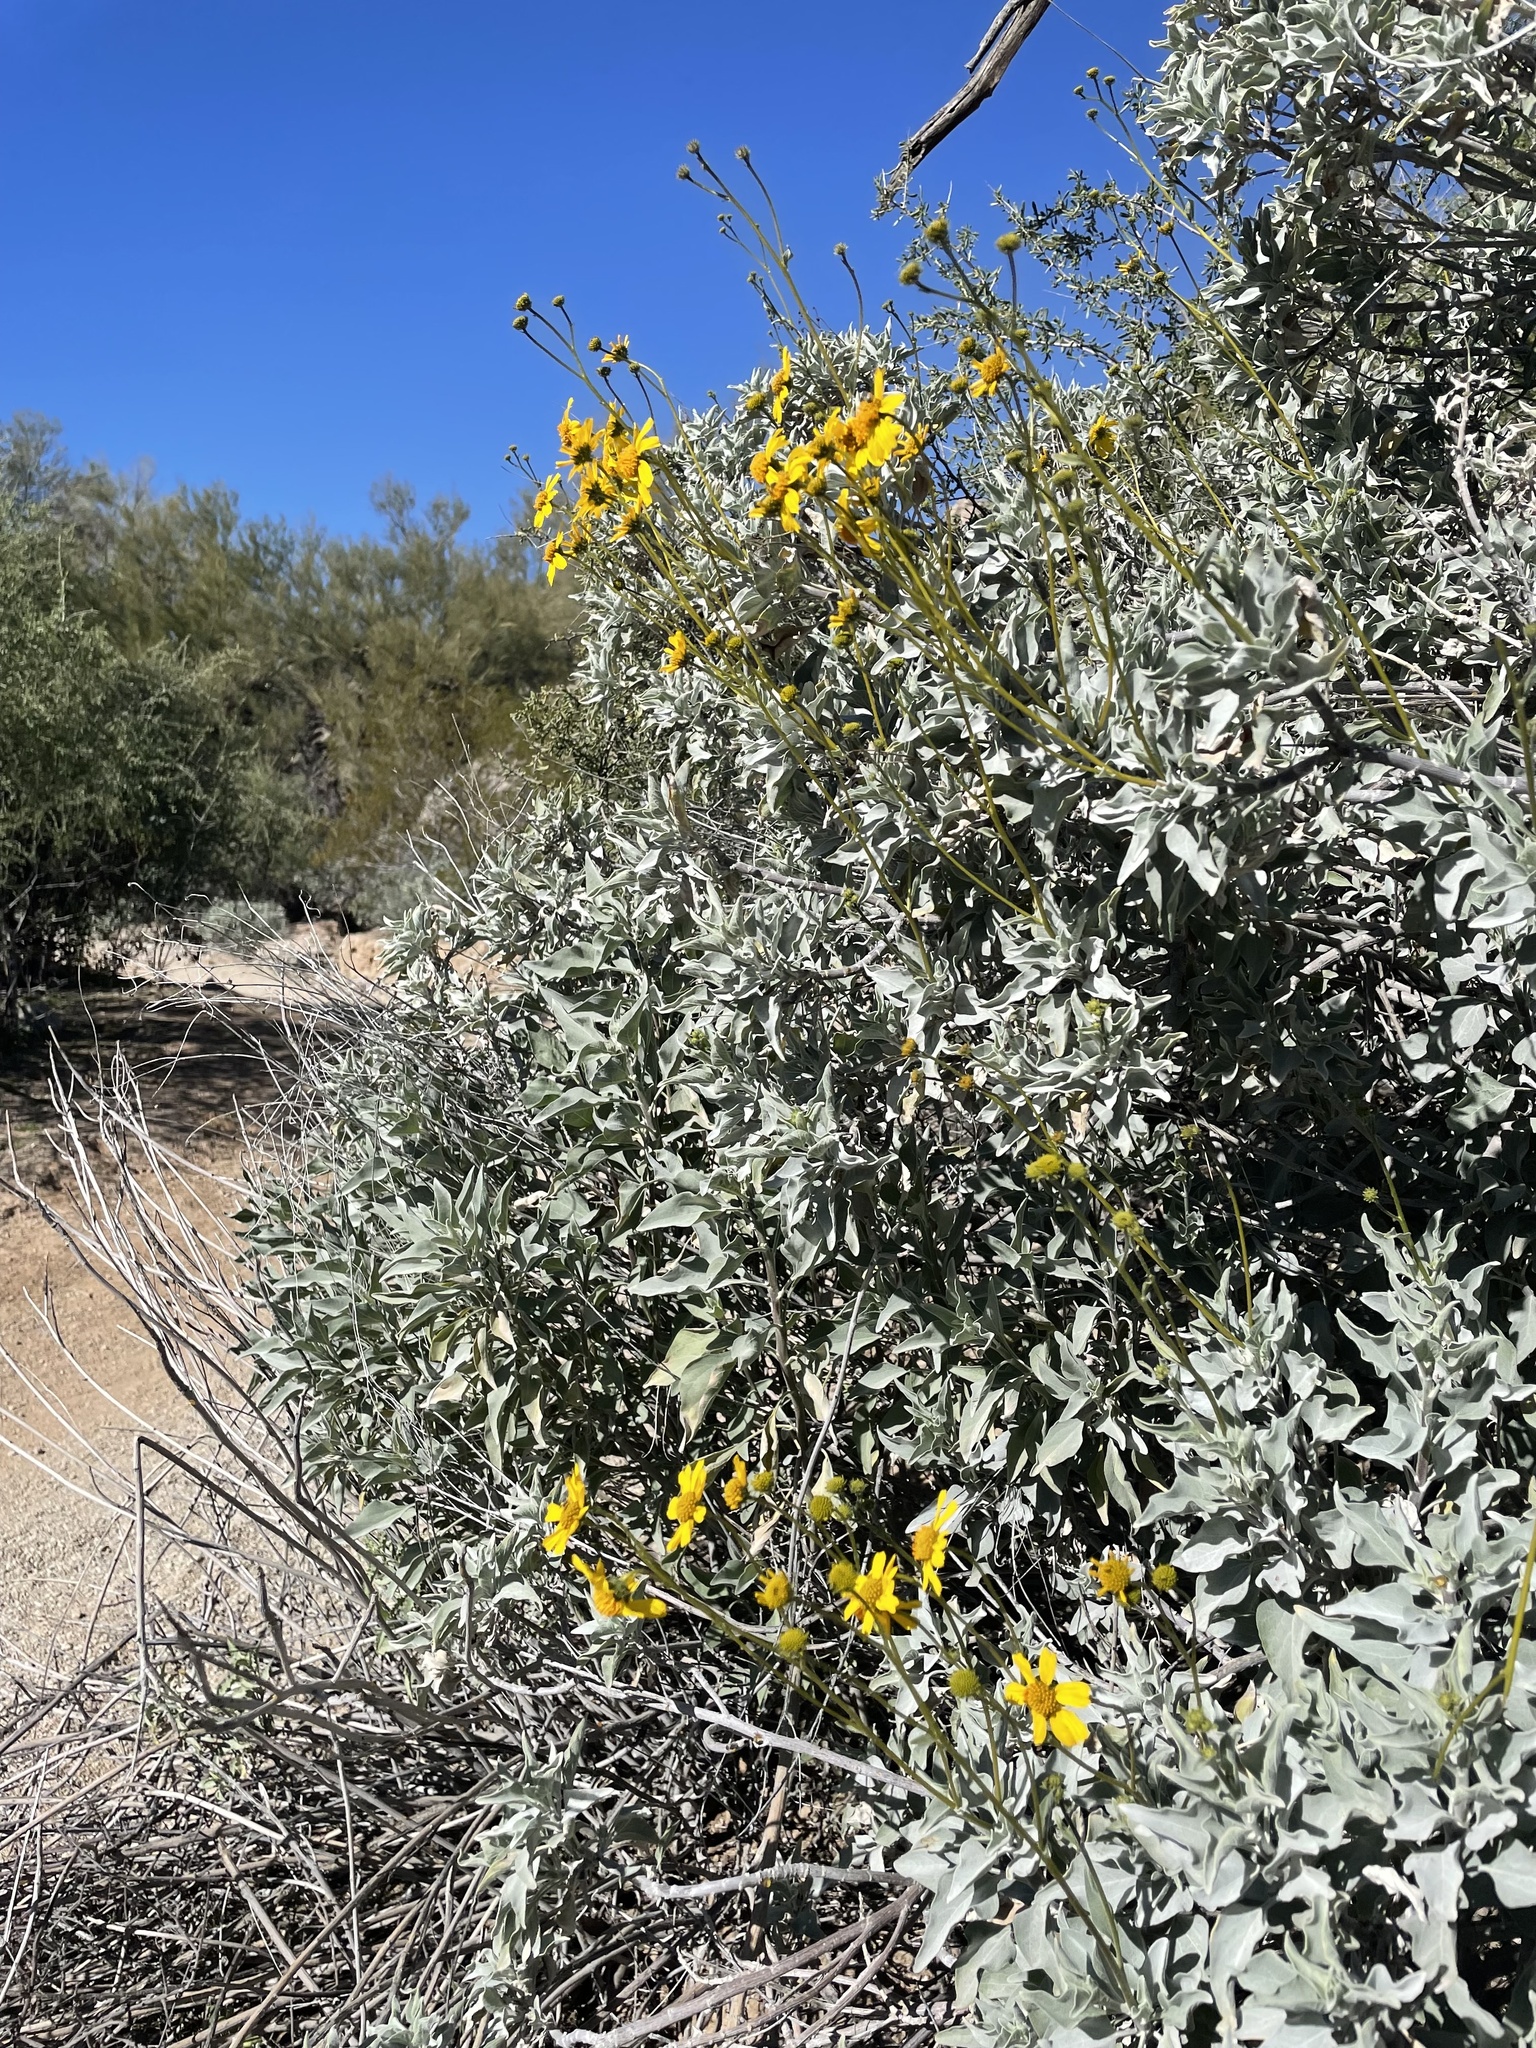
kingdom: Plantae
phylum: Tracheophyta
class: Magnoliopsida
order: Asterales
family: Asteraceae
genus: Encelia
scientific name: Encelia farinosa
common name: Brittlebush
